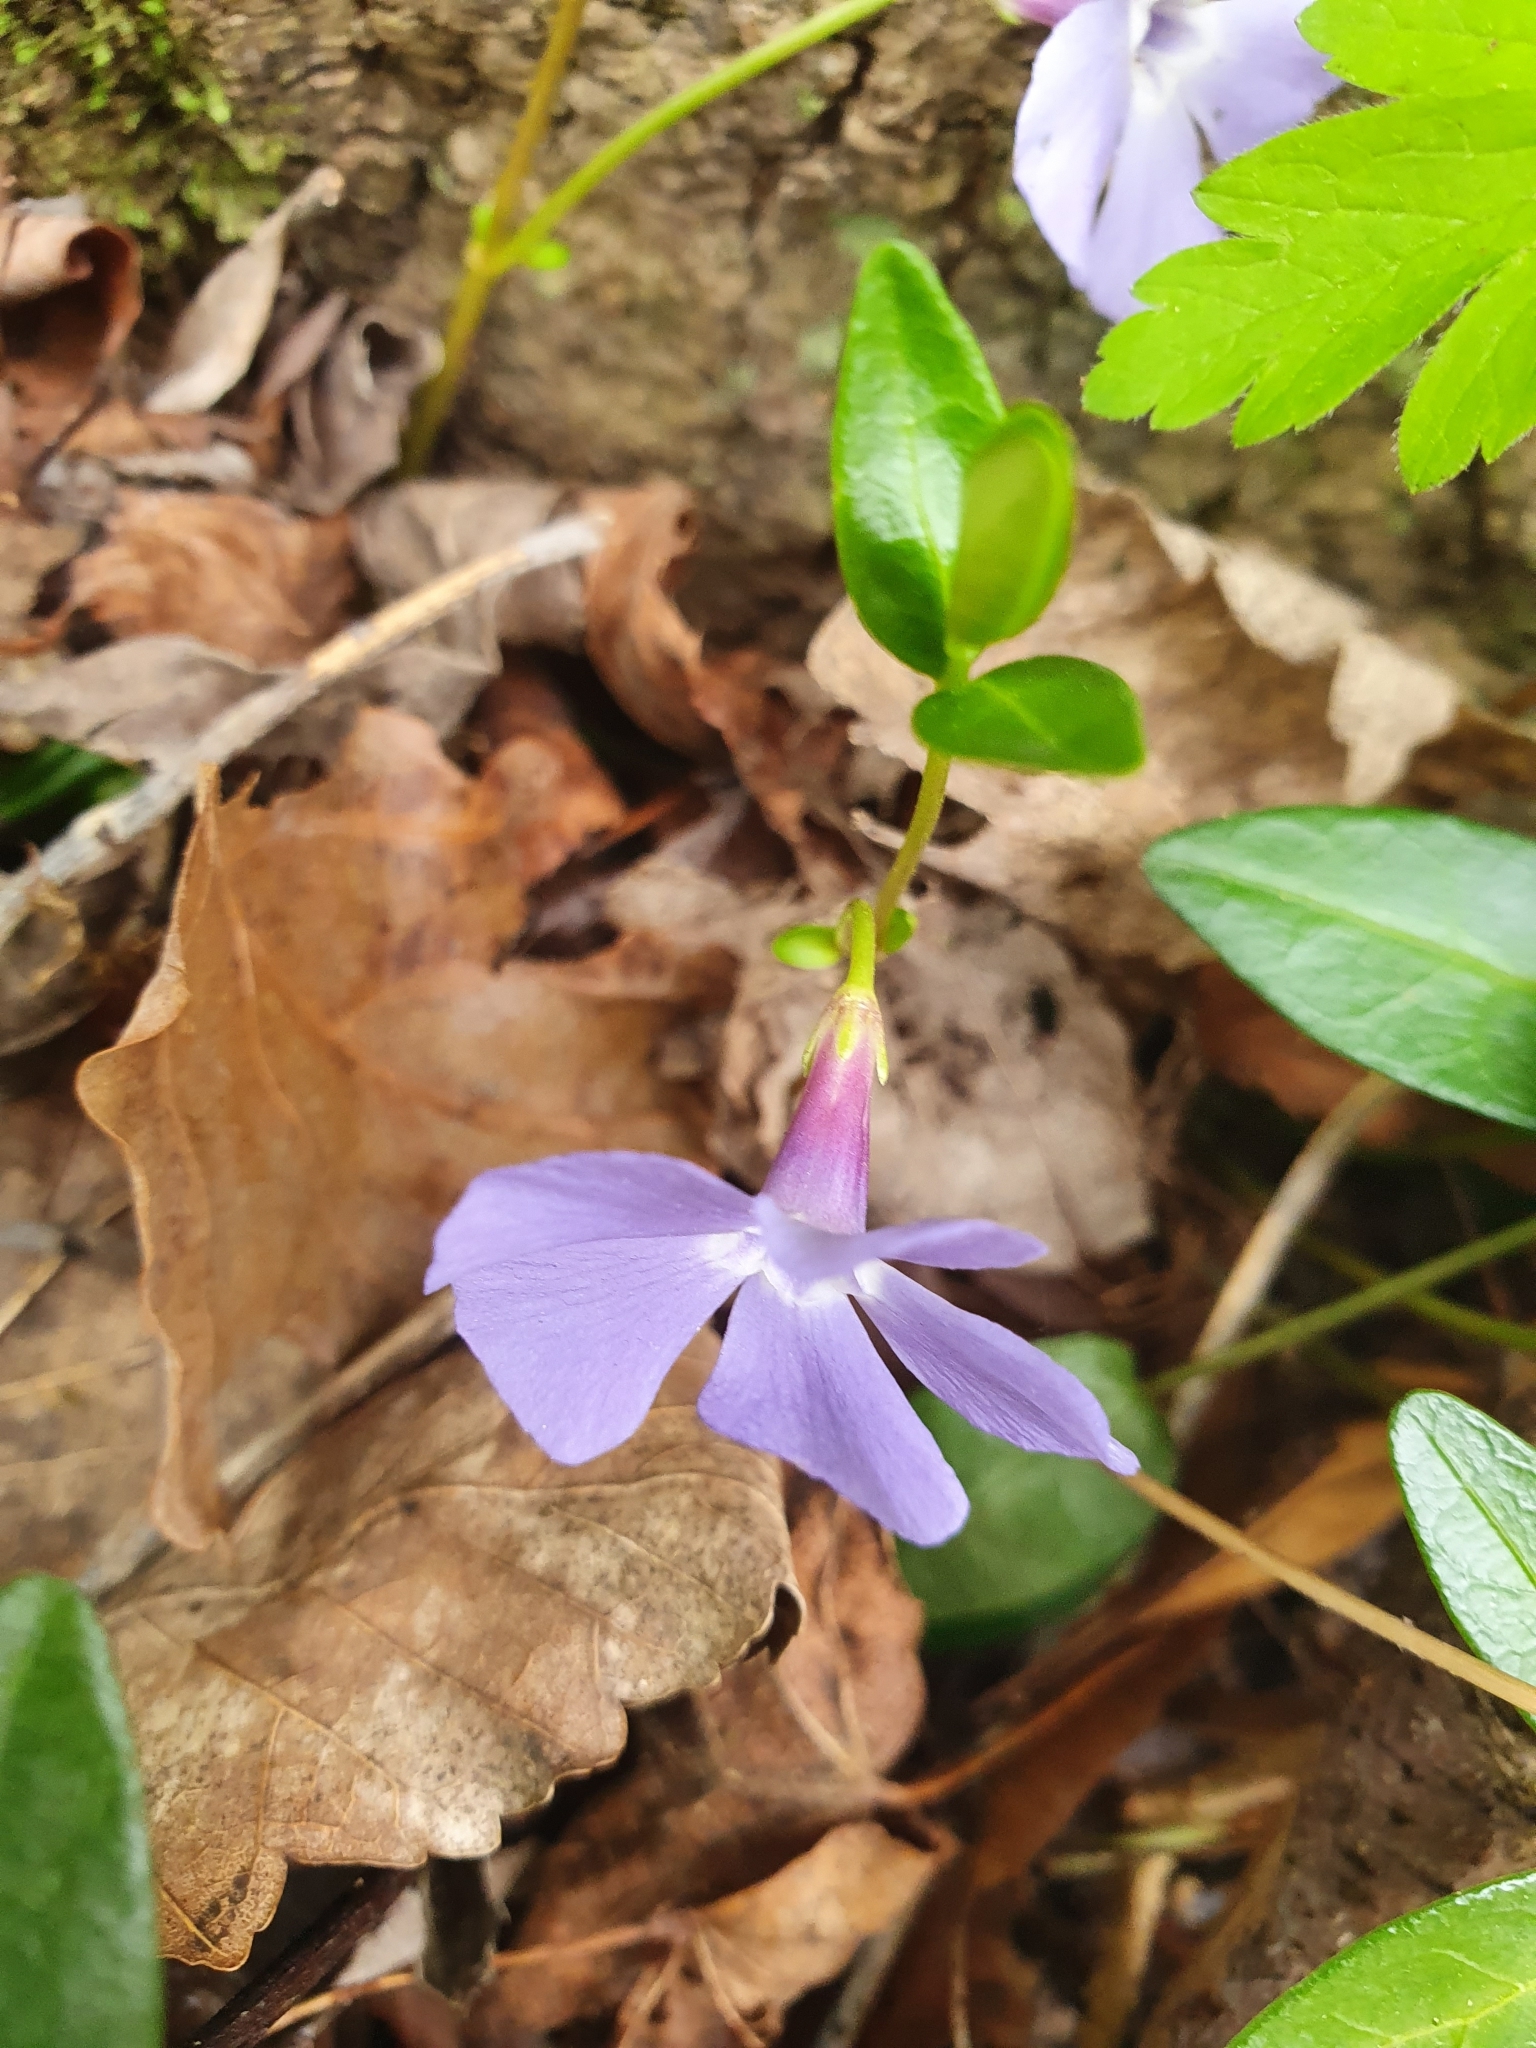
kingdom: Plantae
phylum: Tracheophyta
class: Magnoliopsida
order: Gentianales
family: Apocynaceae
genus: Vinca
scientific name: Vinca minor
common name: Lesser periwinkle
